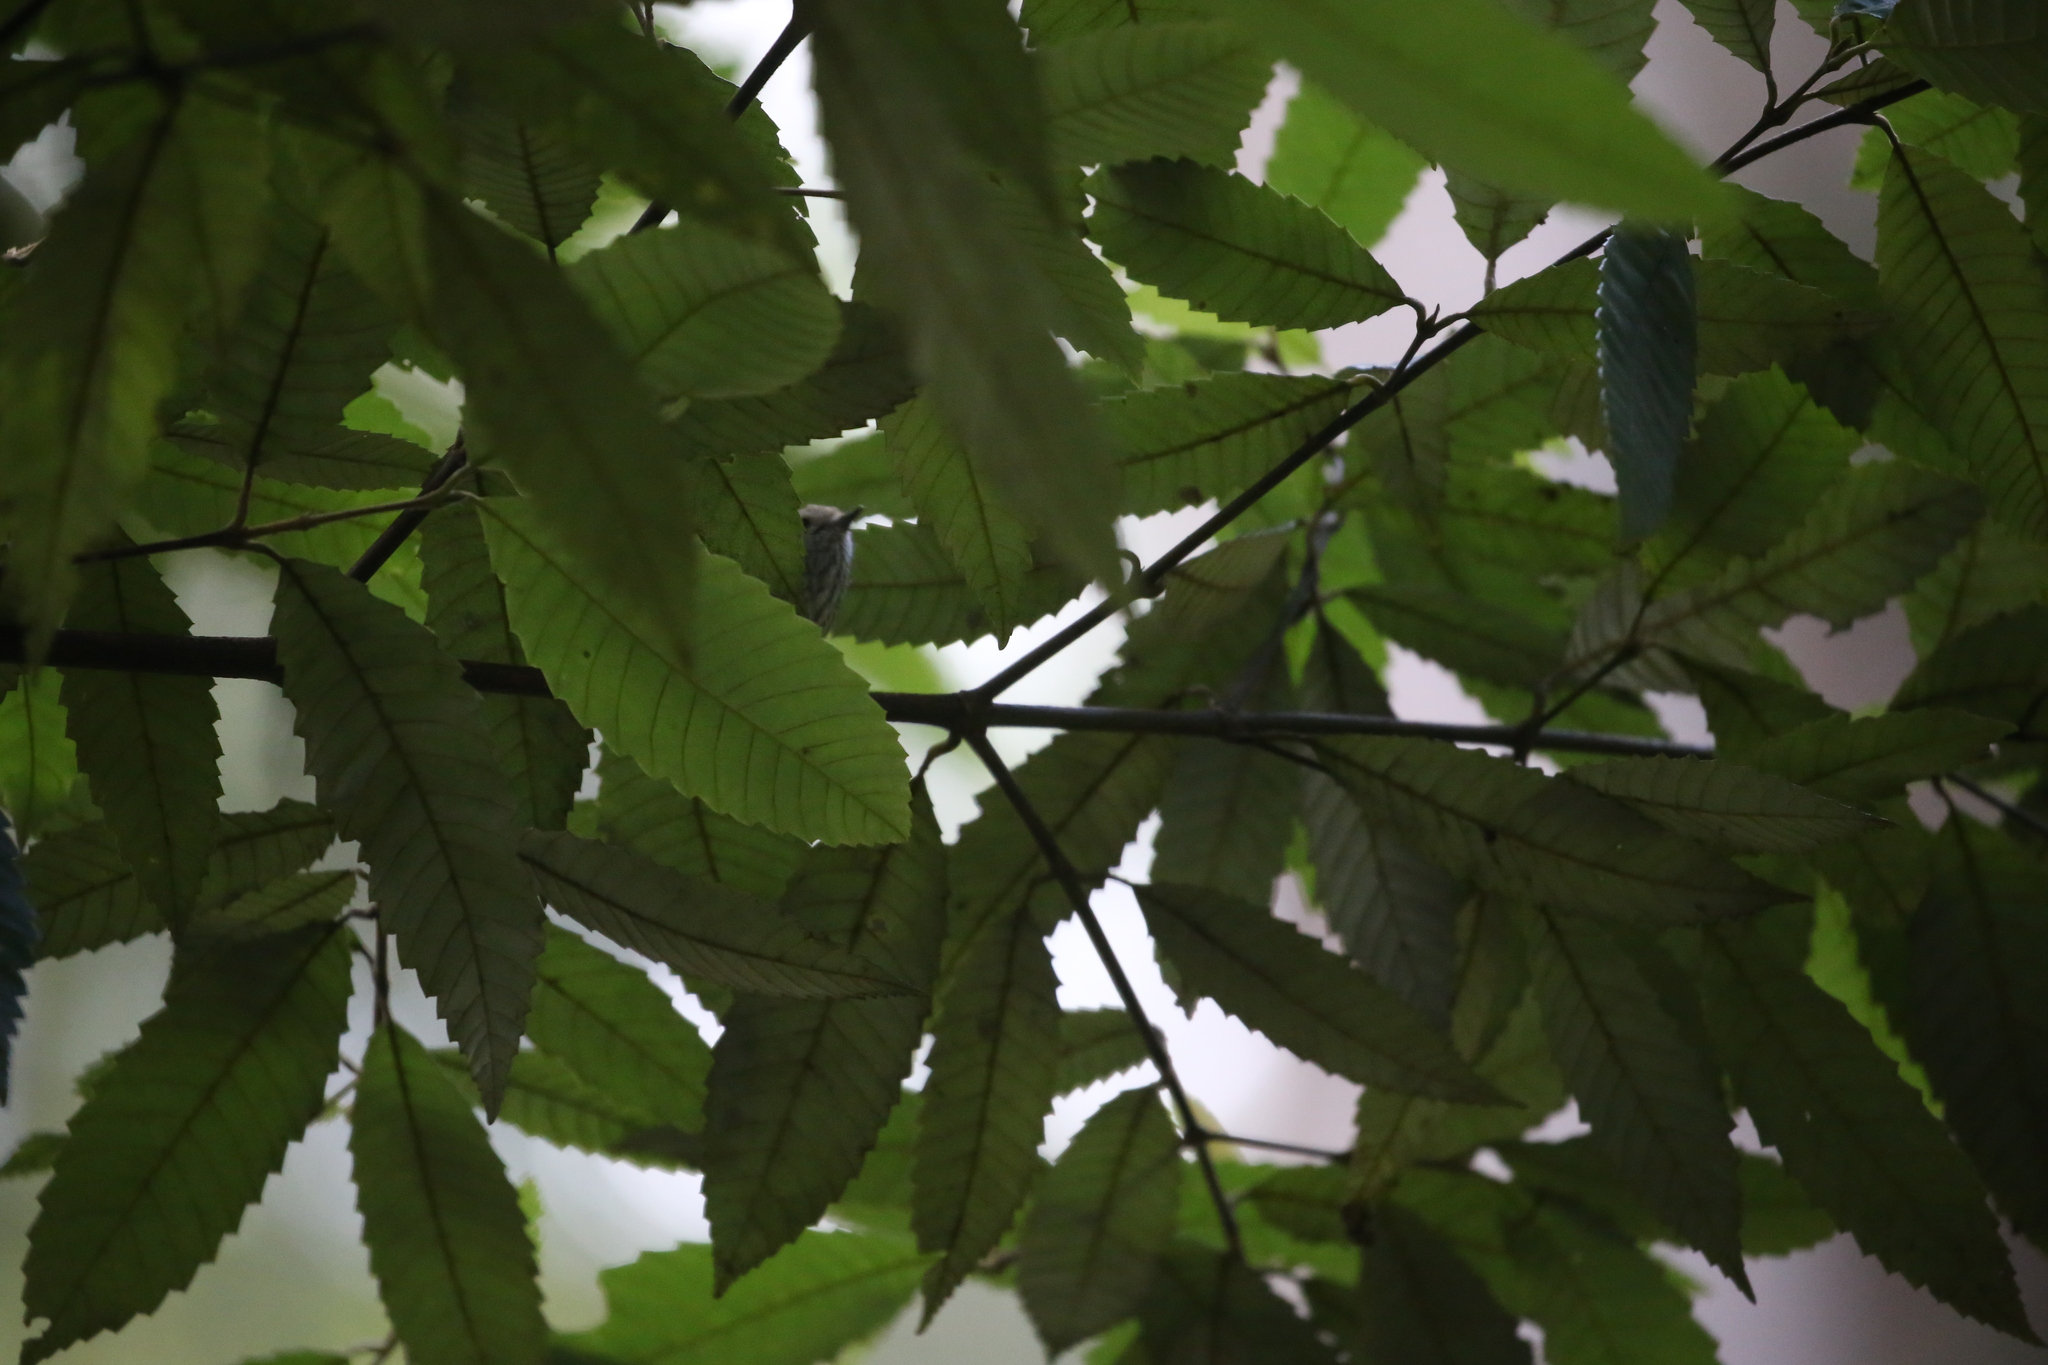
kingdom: Animalia
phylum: Chordata
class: Aves
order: Passeriformes
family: Acanthizidae
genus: Acanthiza
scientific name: Acanthiza pusilla
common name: Brown thornbill
